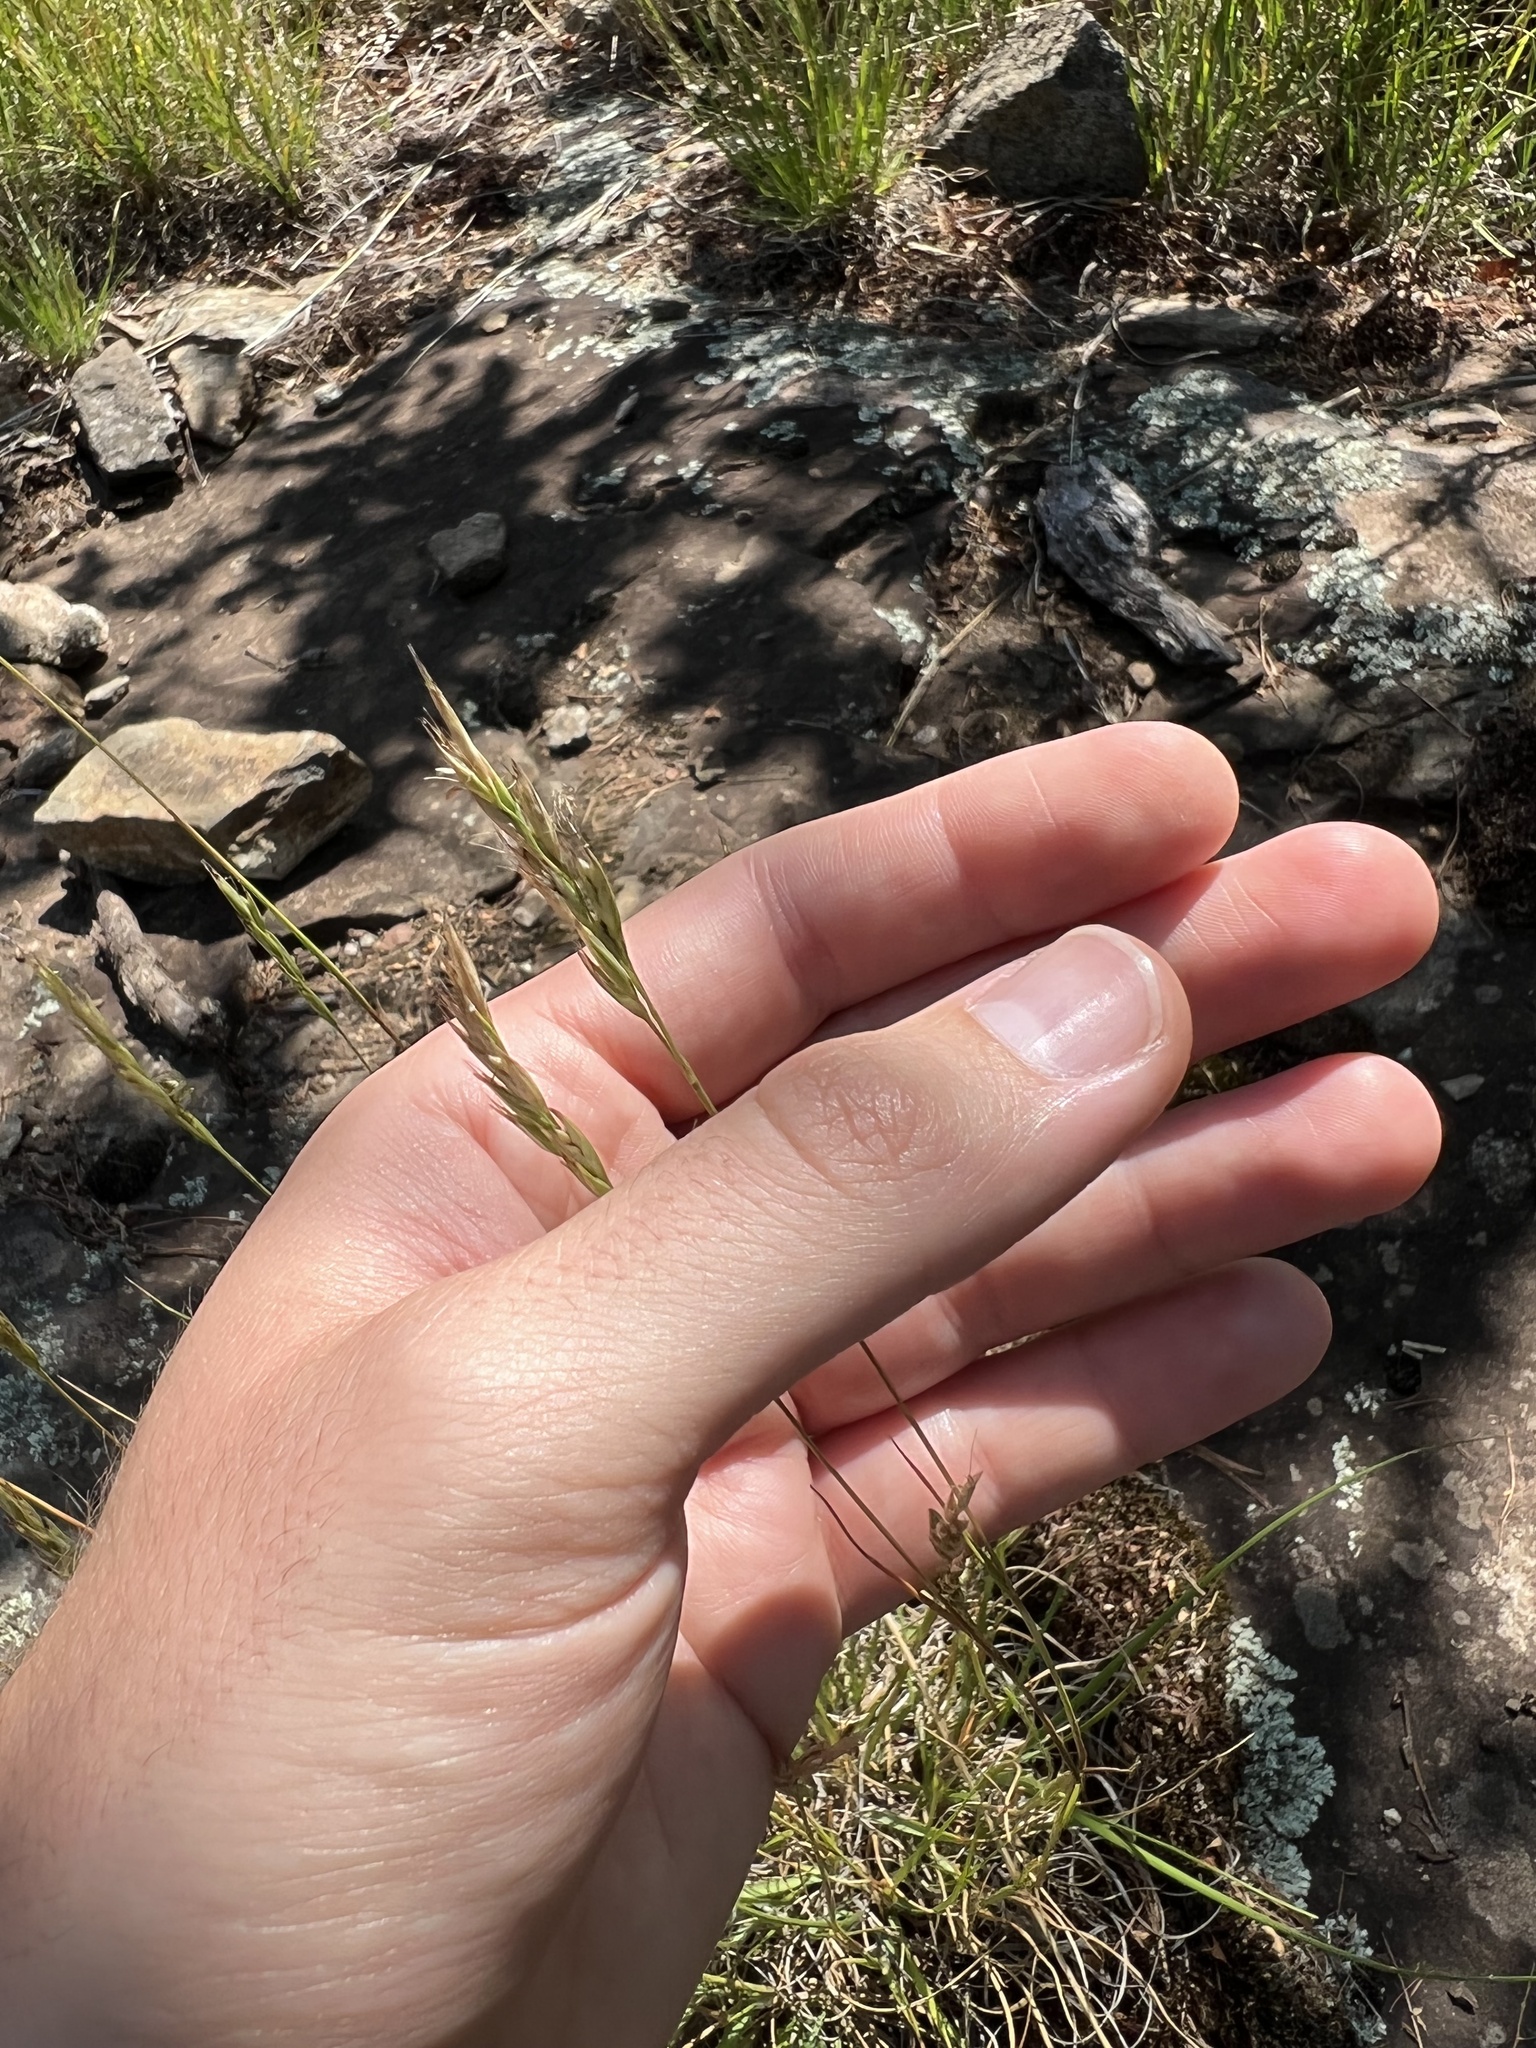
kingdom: Plantae
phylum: Tracheophyta
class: Liliopsida
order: Poales
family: Poaceae
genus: Danthonia
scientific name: Danthonia spicata
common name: Common wild oatgrass
